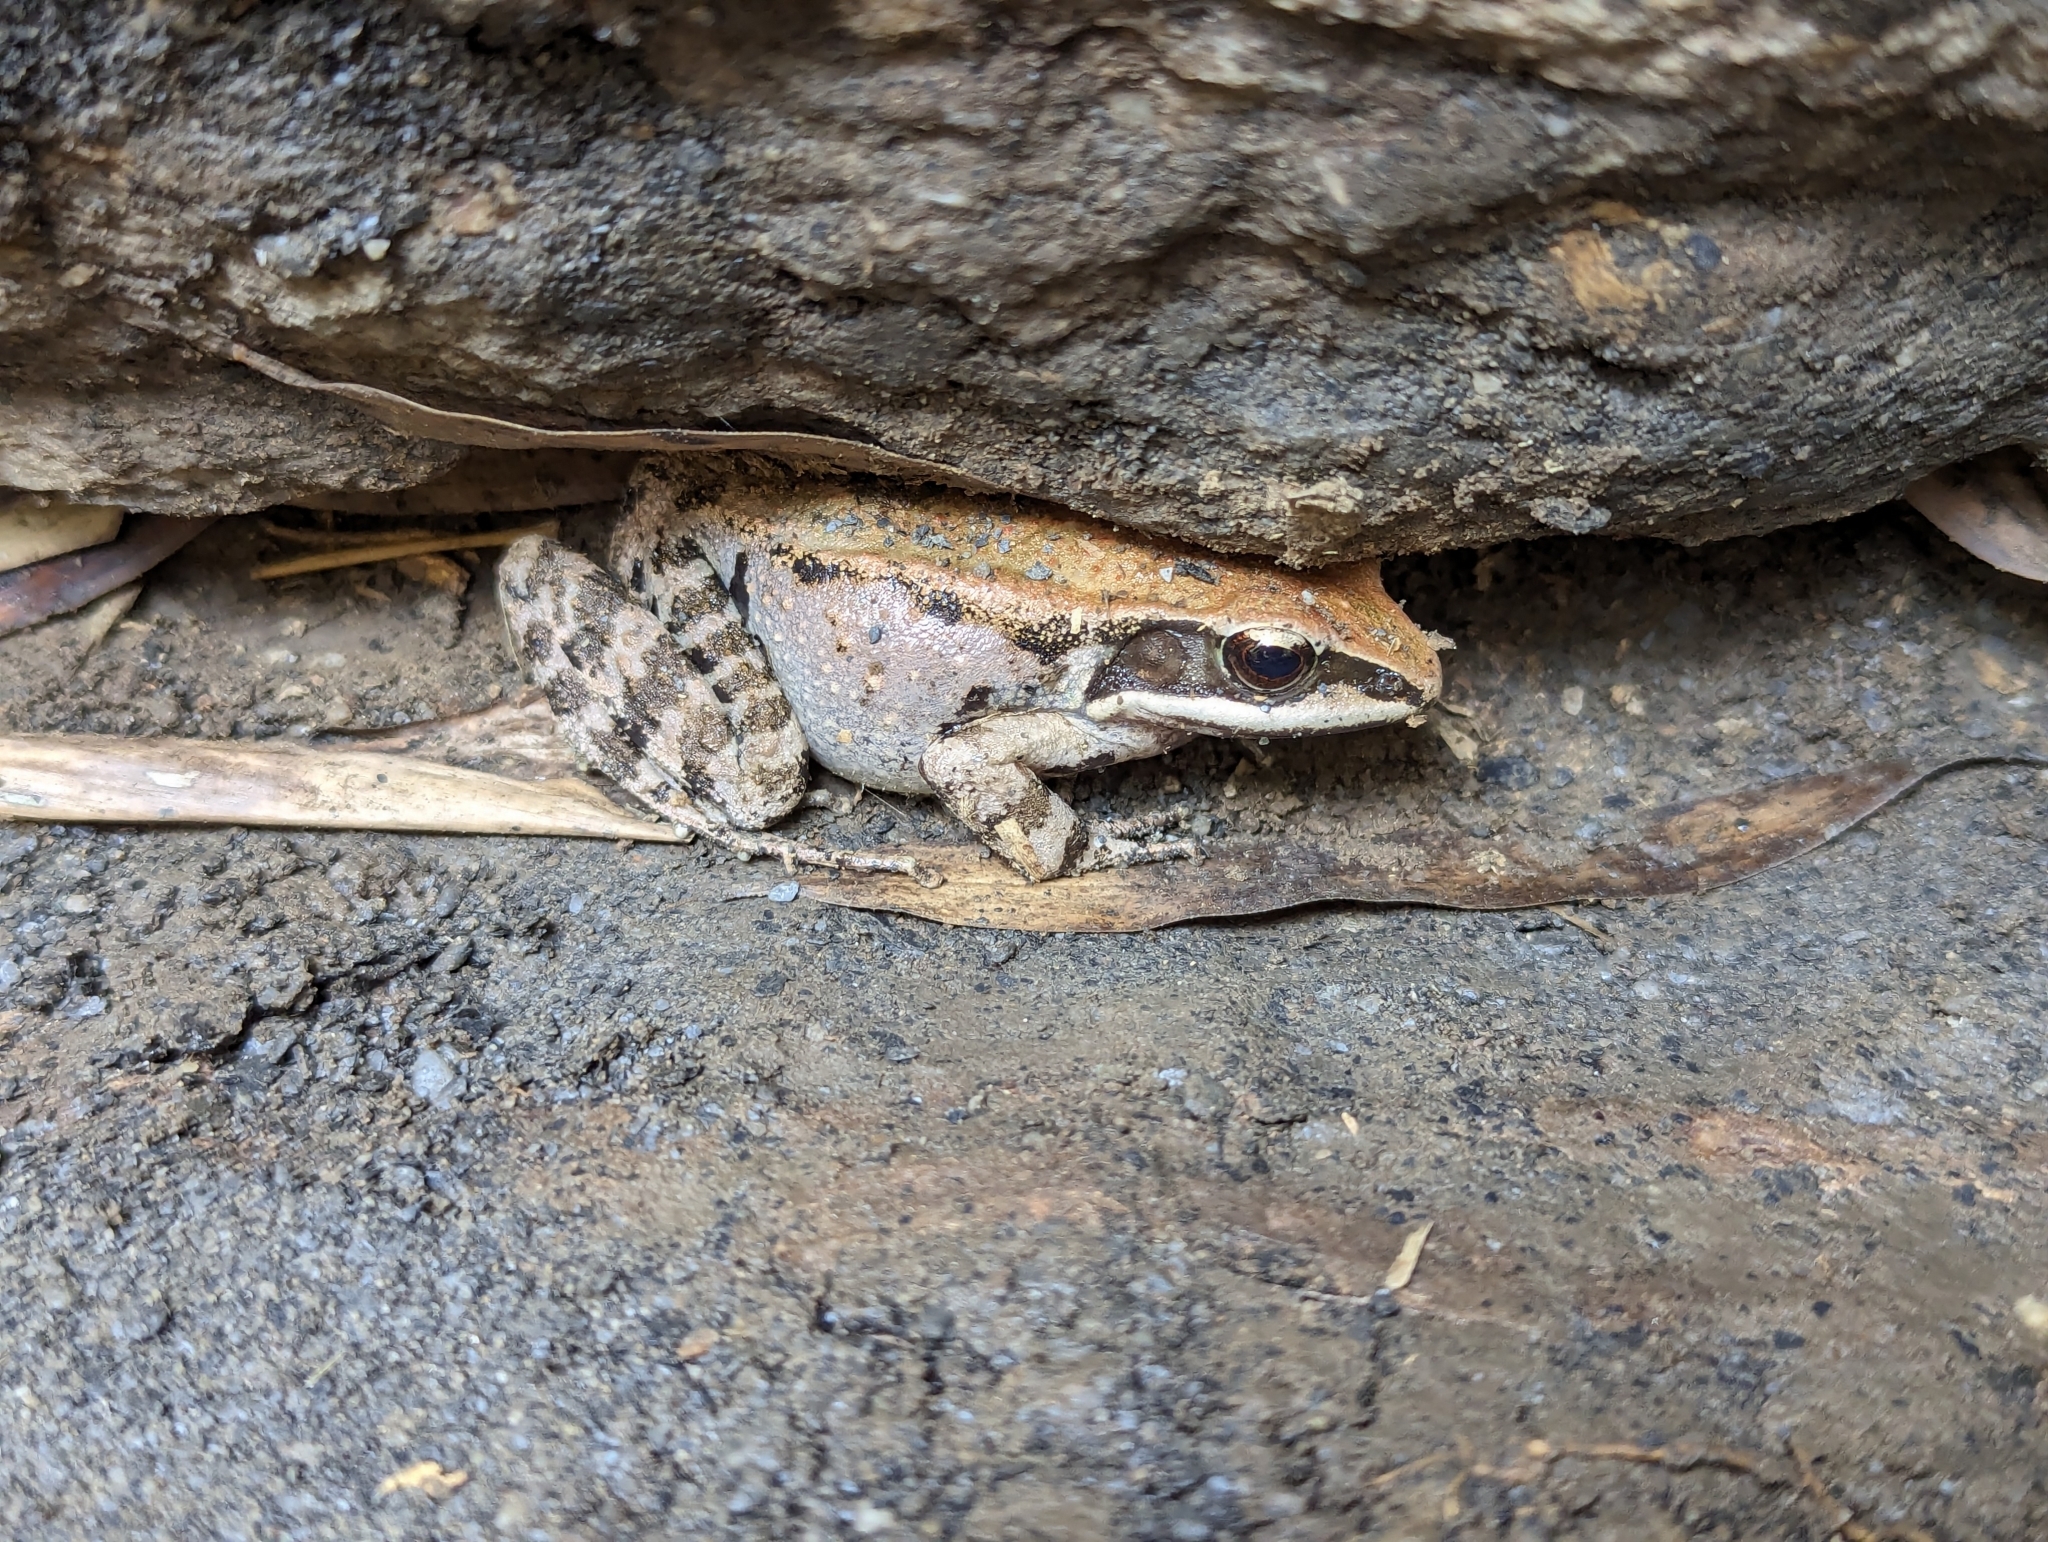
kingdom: Animalia
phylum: Chordata
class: Amphibia
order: Anura
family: Ranidae
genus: Hylarana
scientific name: Hylarana latouchii
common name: Broad-folded frog
